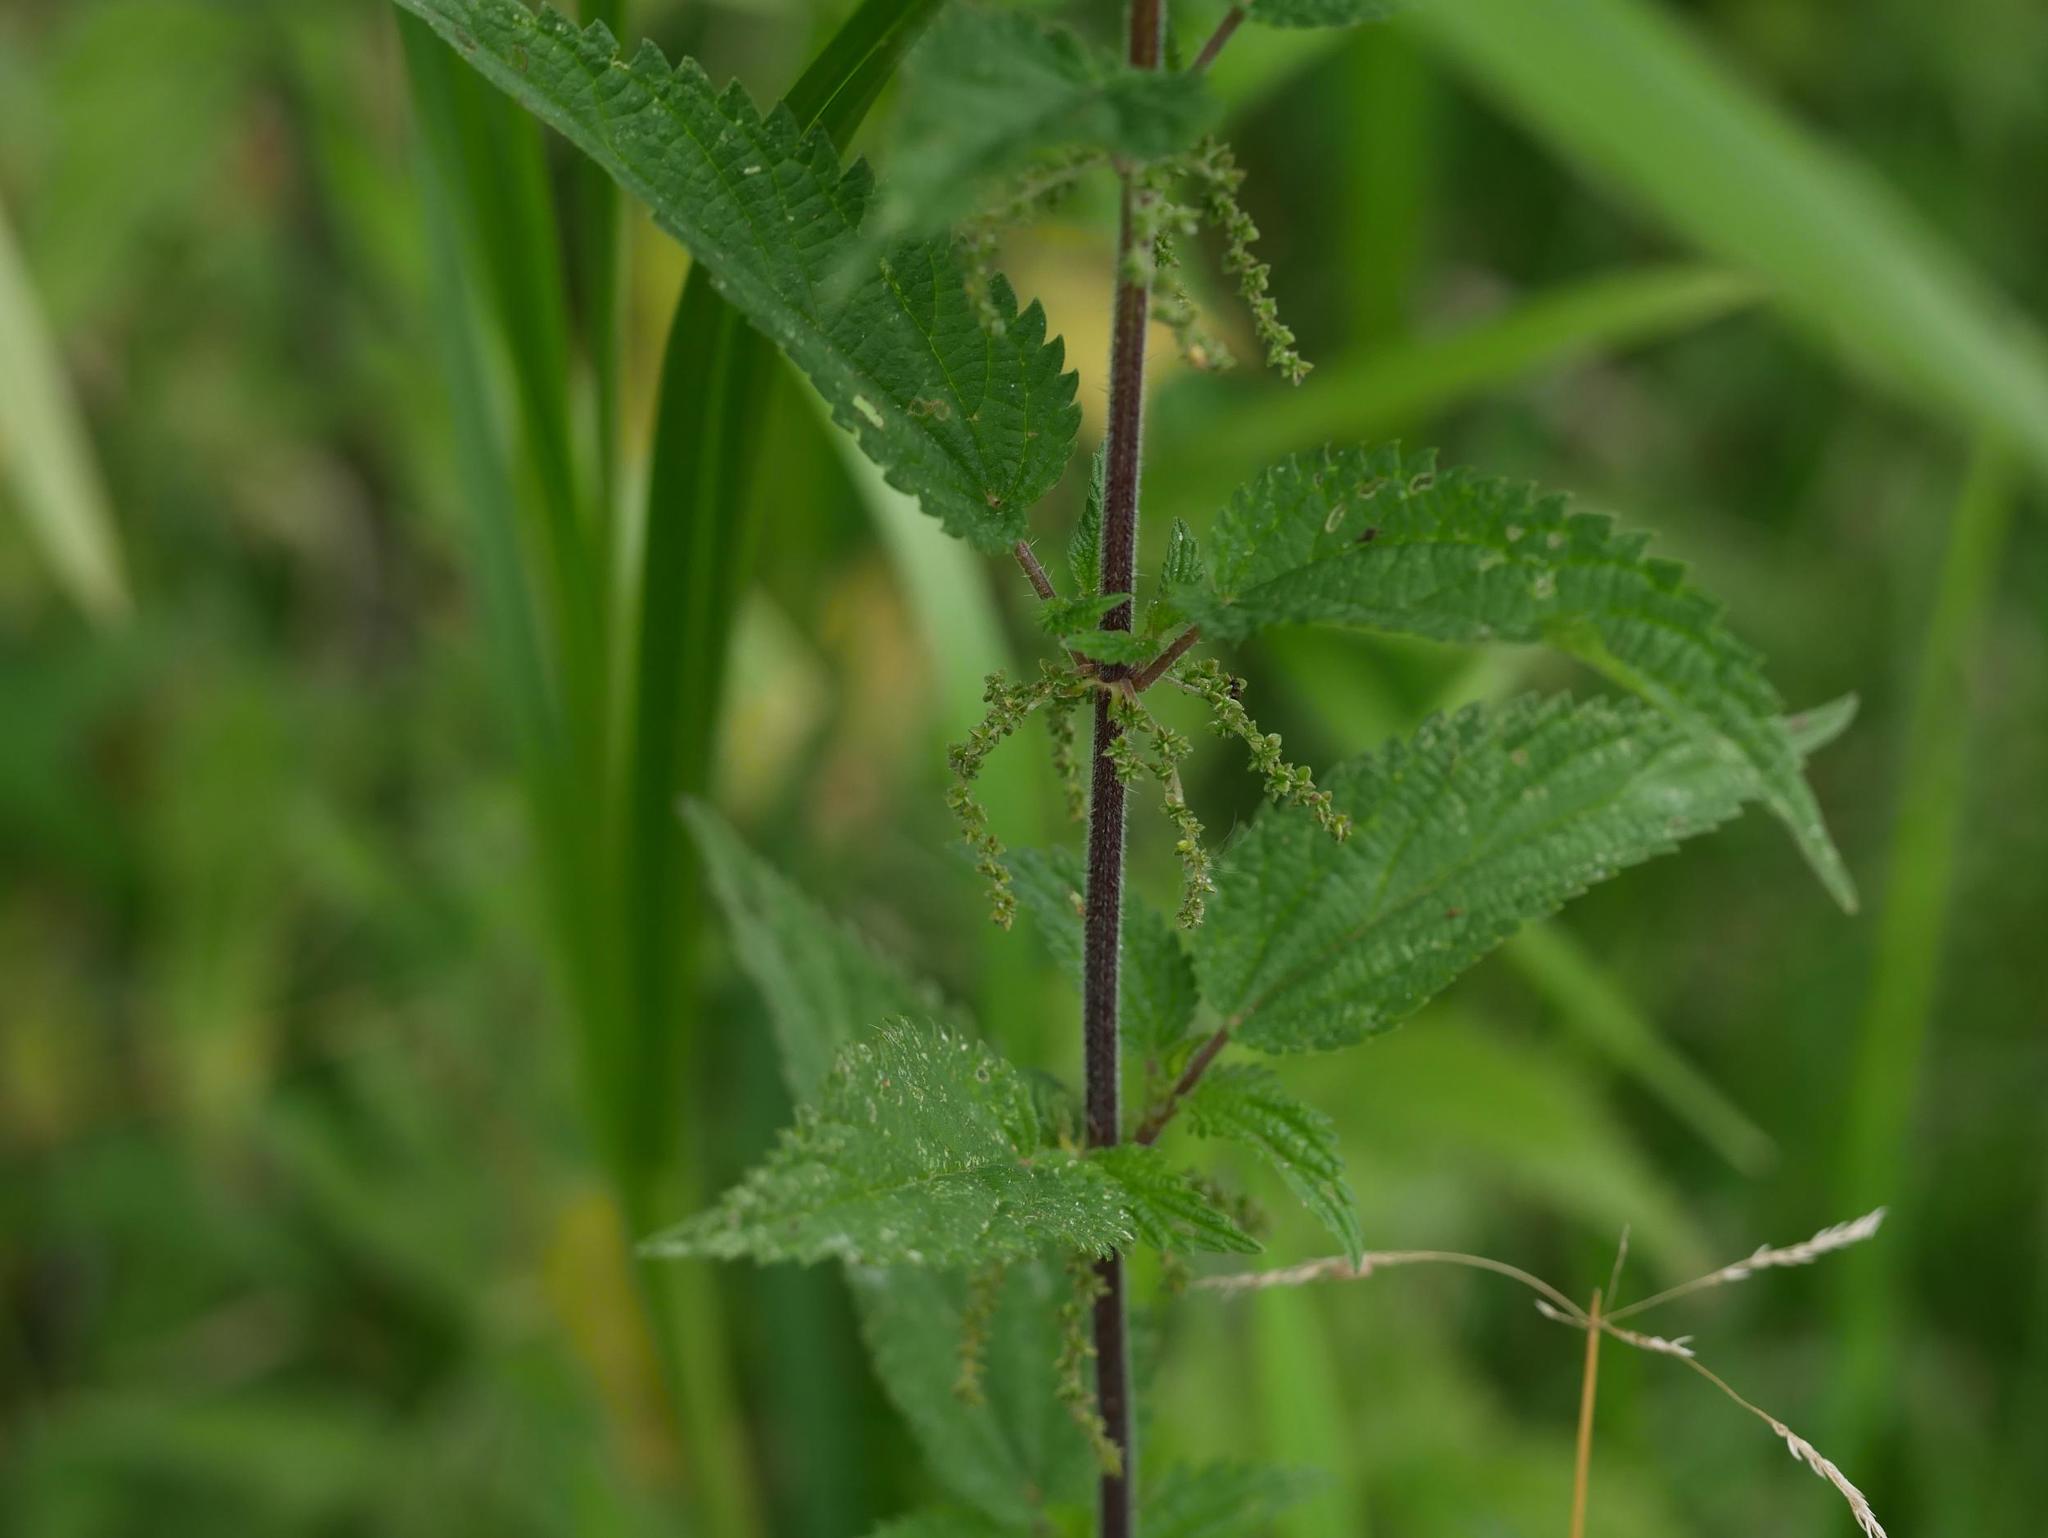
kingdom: Plantae
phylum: Tracheophyta
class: Magnoliopsida
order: Rosales
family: Urticaceae
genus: Urtica
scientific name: Urtica dioica
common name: Common nettle
